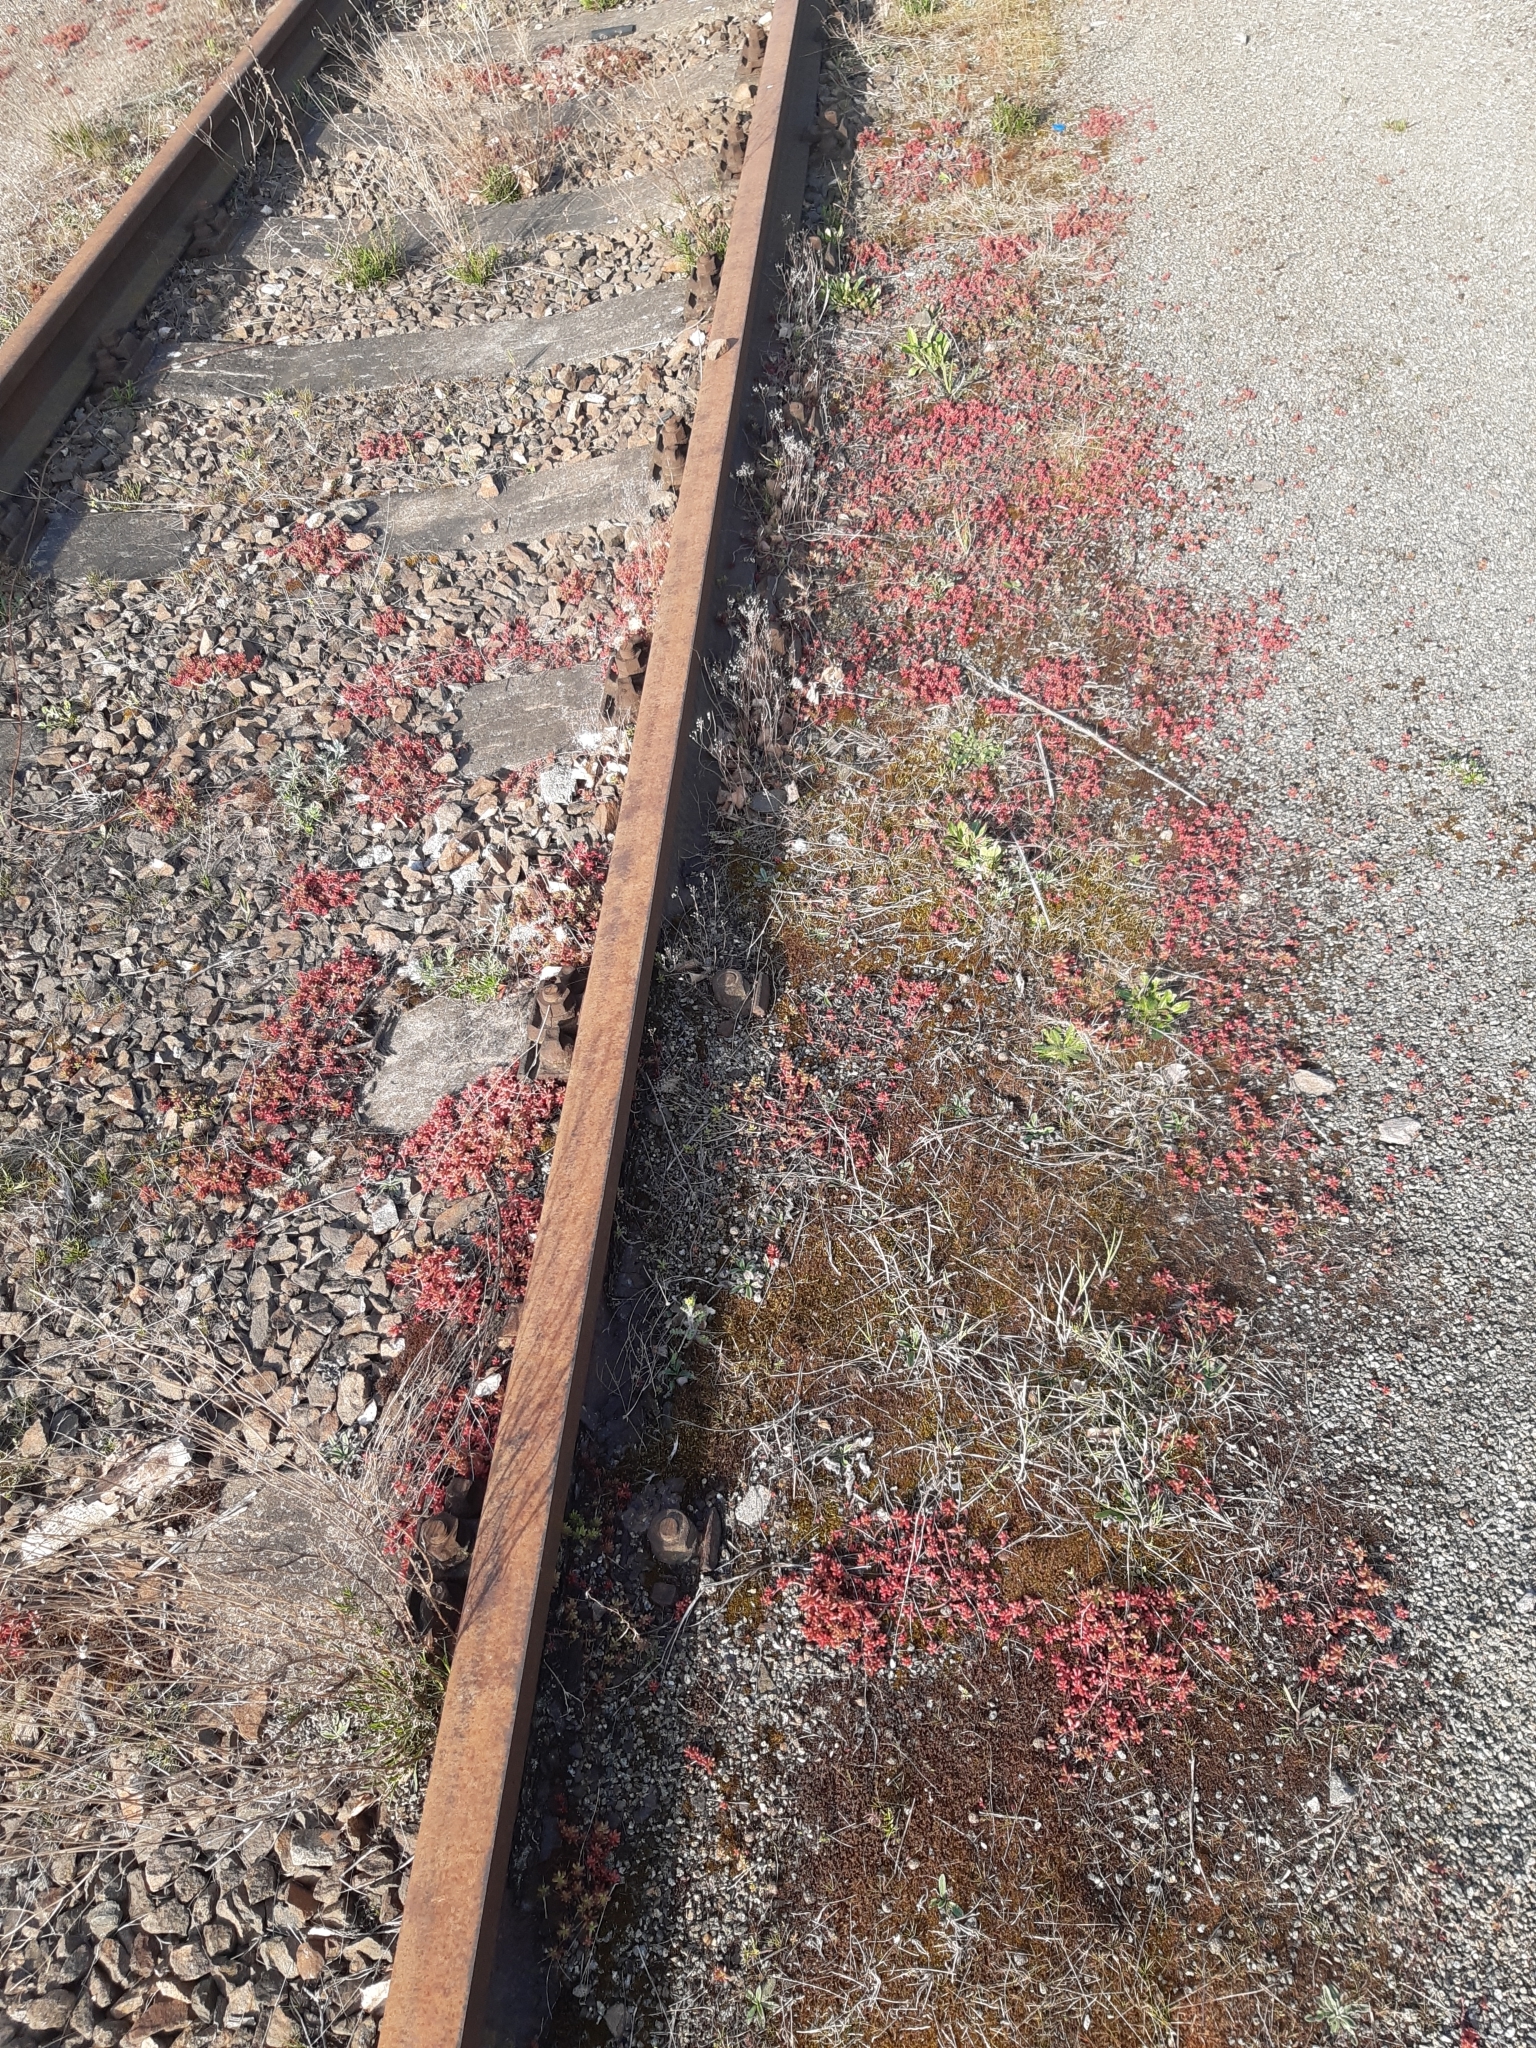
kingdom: Plantae
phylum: Tracheophyta
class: Magnoliopsida
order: Saxifragales
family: Crassulaceae
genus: Sedum
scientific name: Sedum album
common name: White stonecrop
